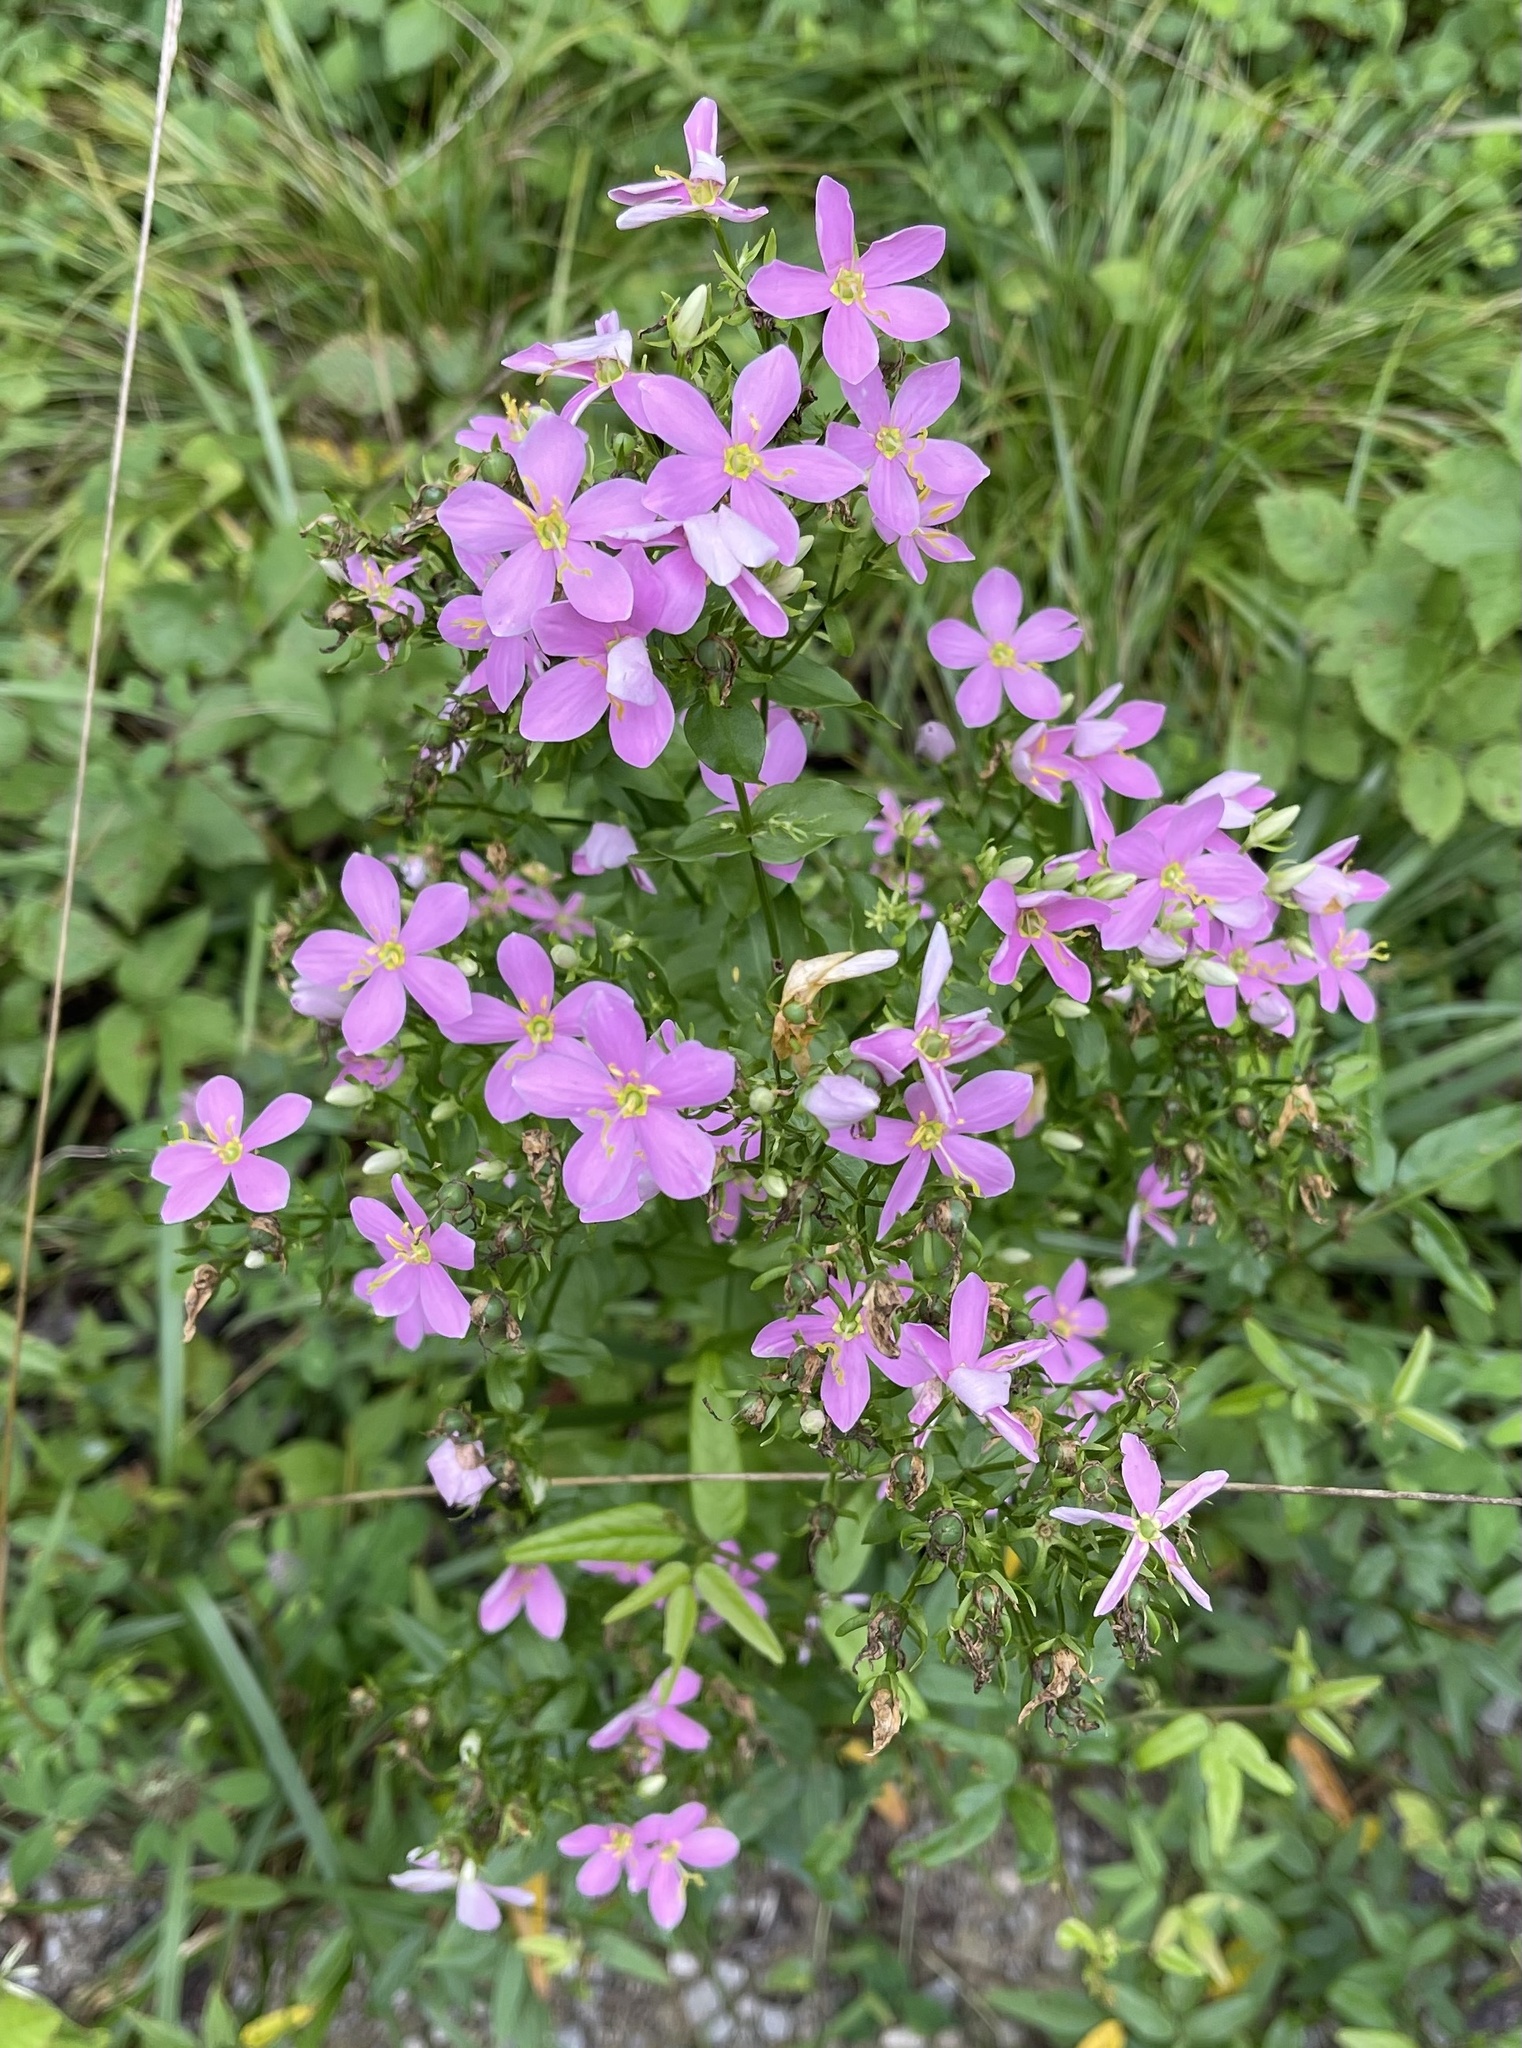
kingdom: Plantae
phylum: Tracheophyta
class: Magnoliopsida
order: Gentianales
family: Gentianaceae
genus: Sabatia
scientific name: Sabatia angularis
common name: Rose-pink
